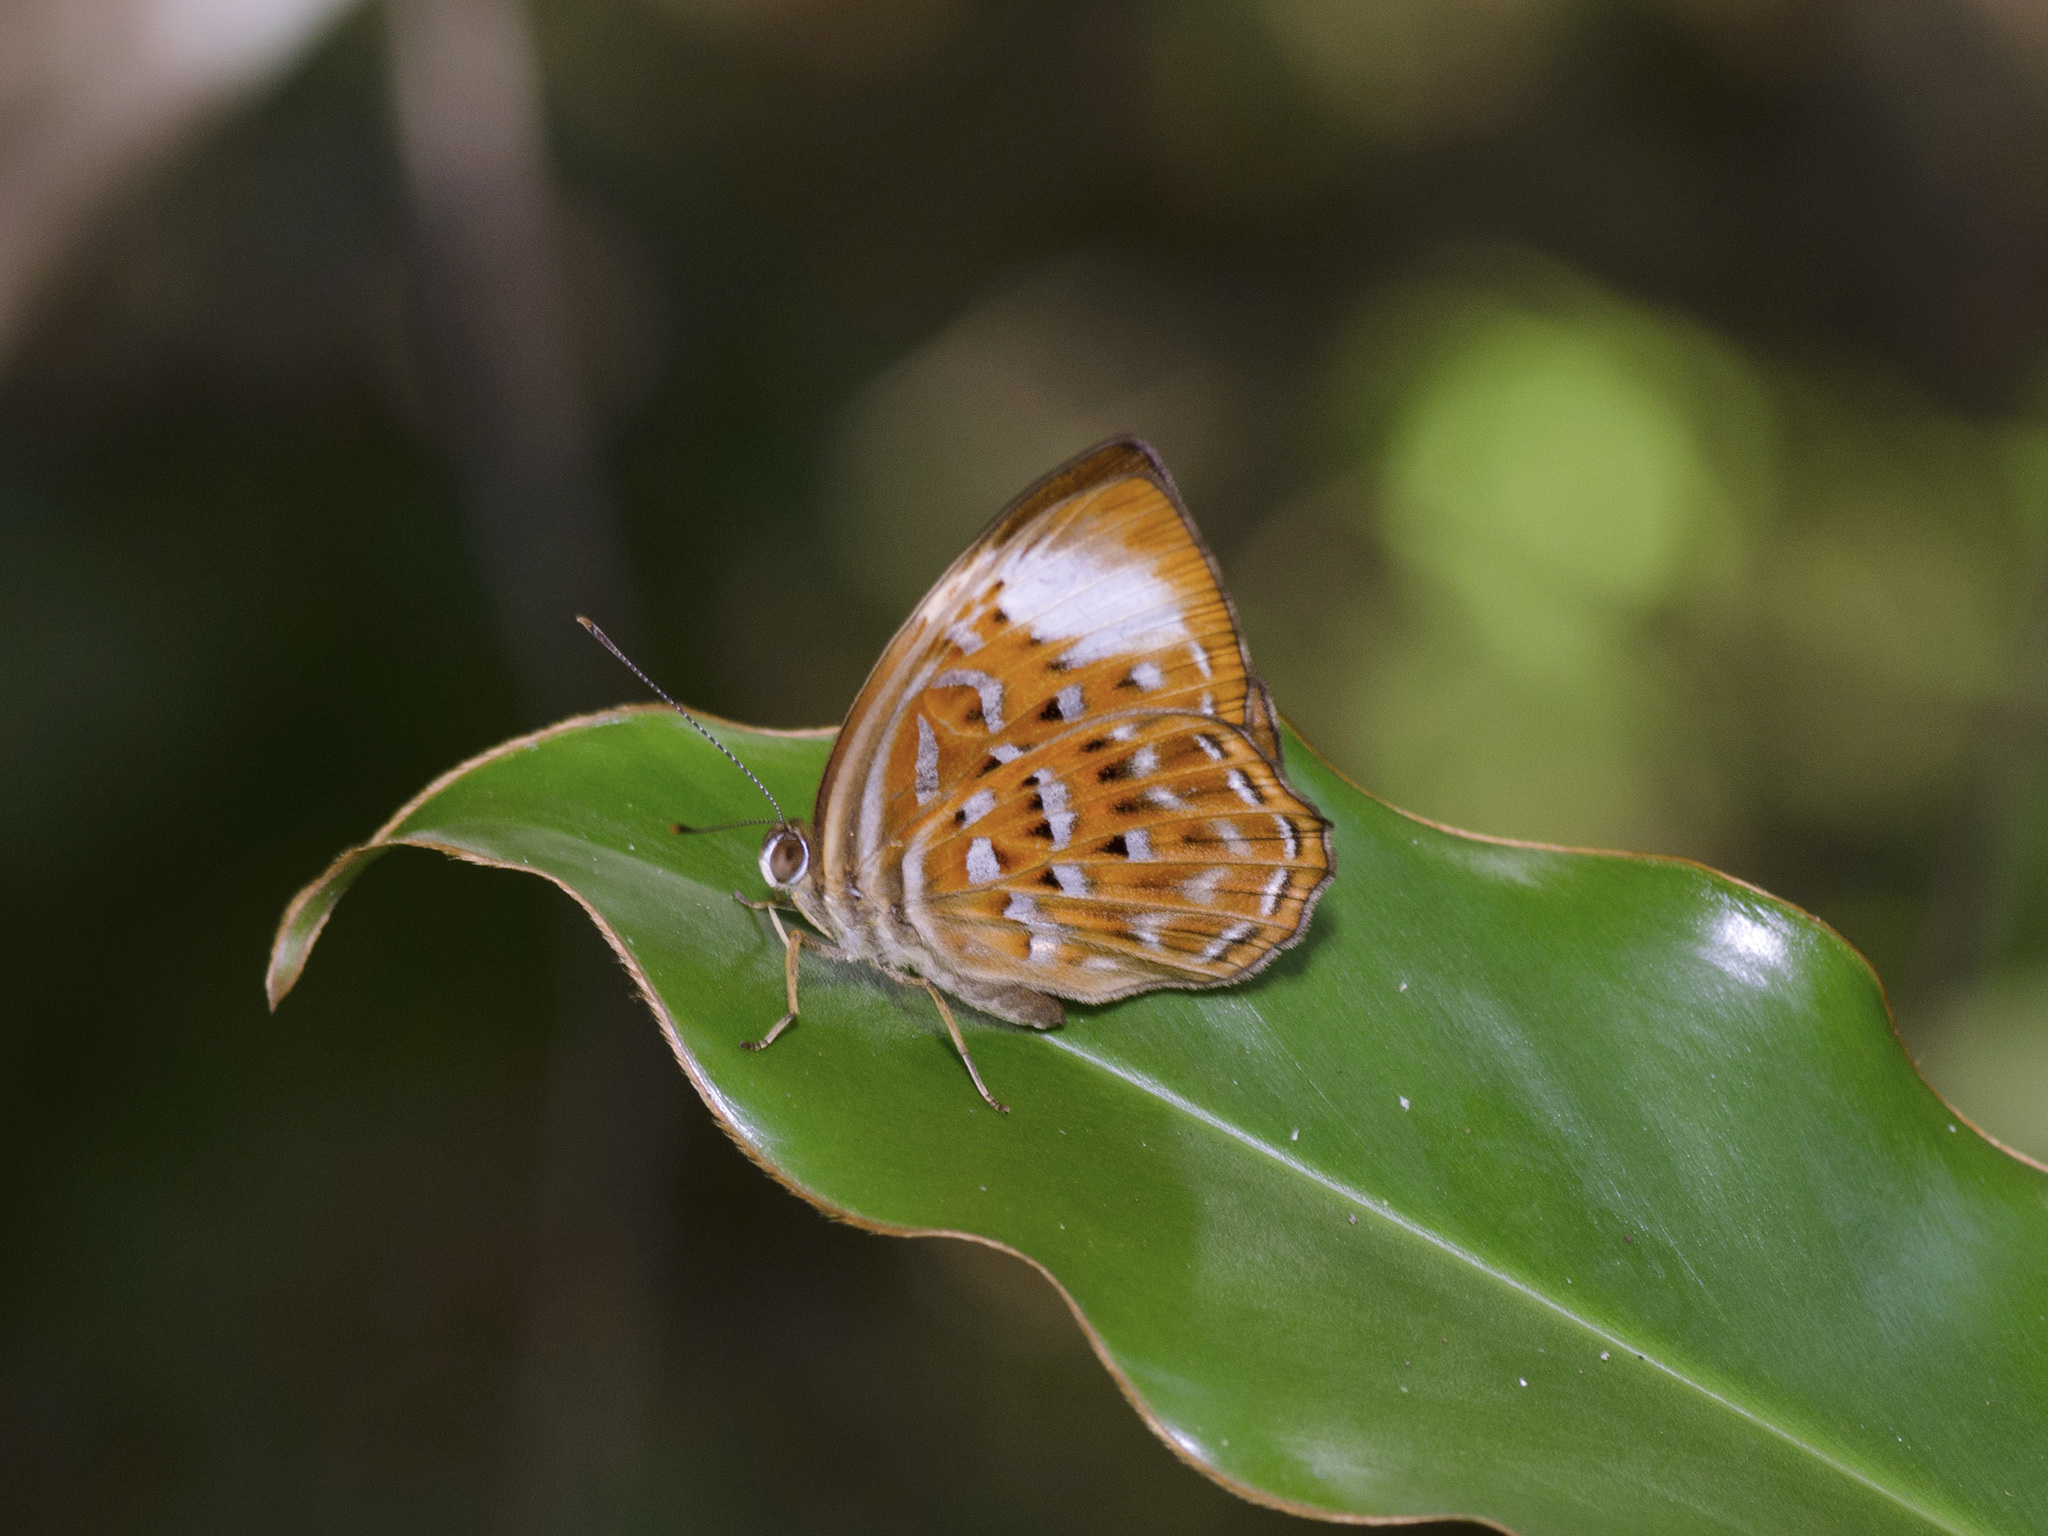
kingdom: Animalia
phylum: Arthropoda
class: Insecta
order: Lepidoptera
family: Erebidae
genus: Dysschema
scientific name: Dysschema
